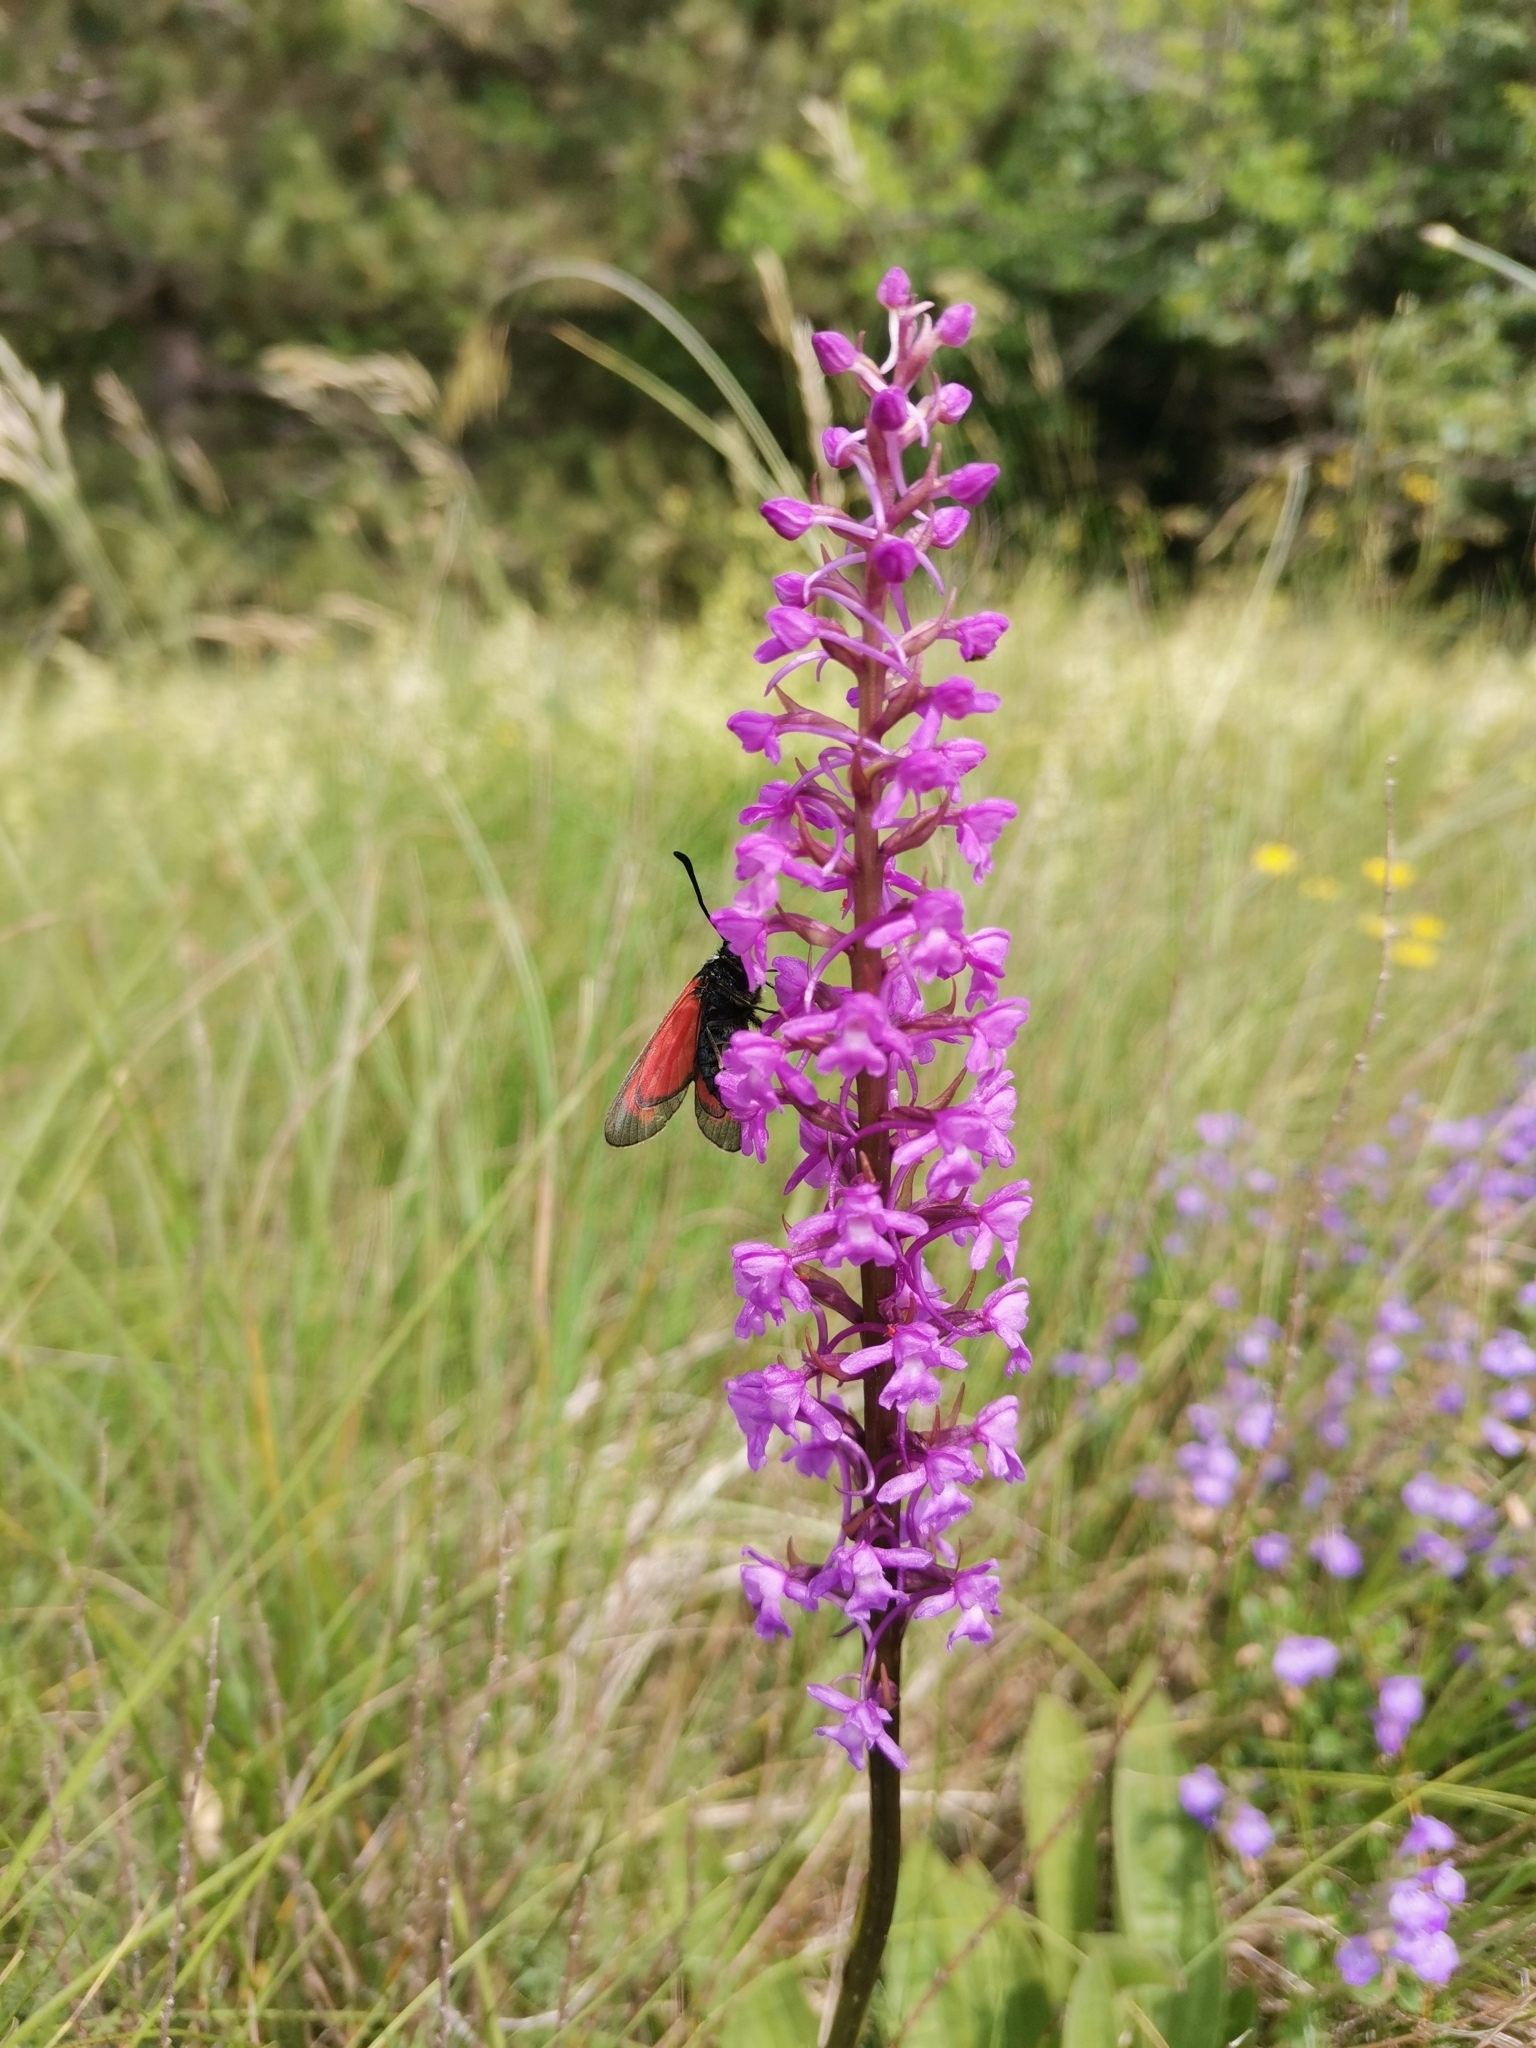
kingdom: Plantae
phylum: Tracheophyta
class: Liliopsida
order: Asparagales
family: Orchidaceae
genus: Gymnadenia
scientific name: Gymnadenia conopsea
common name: Fragrant orchid
